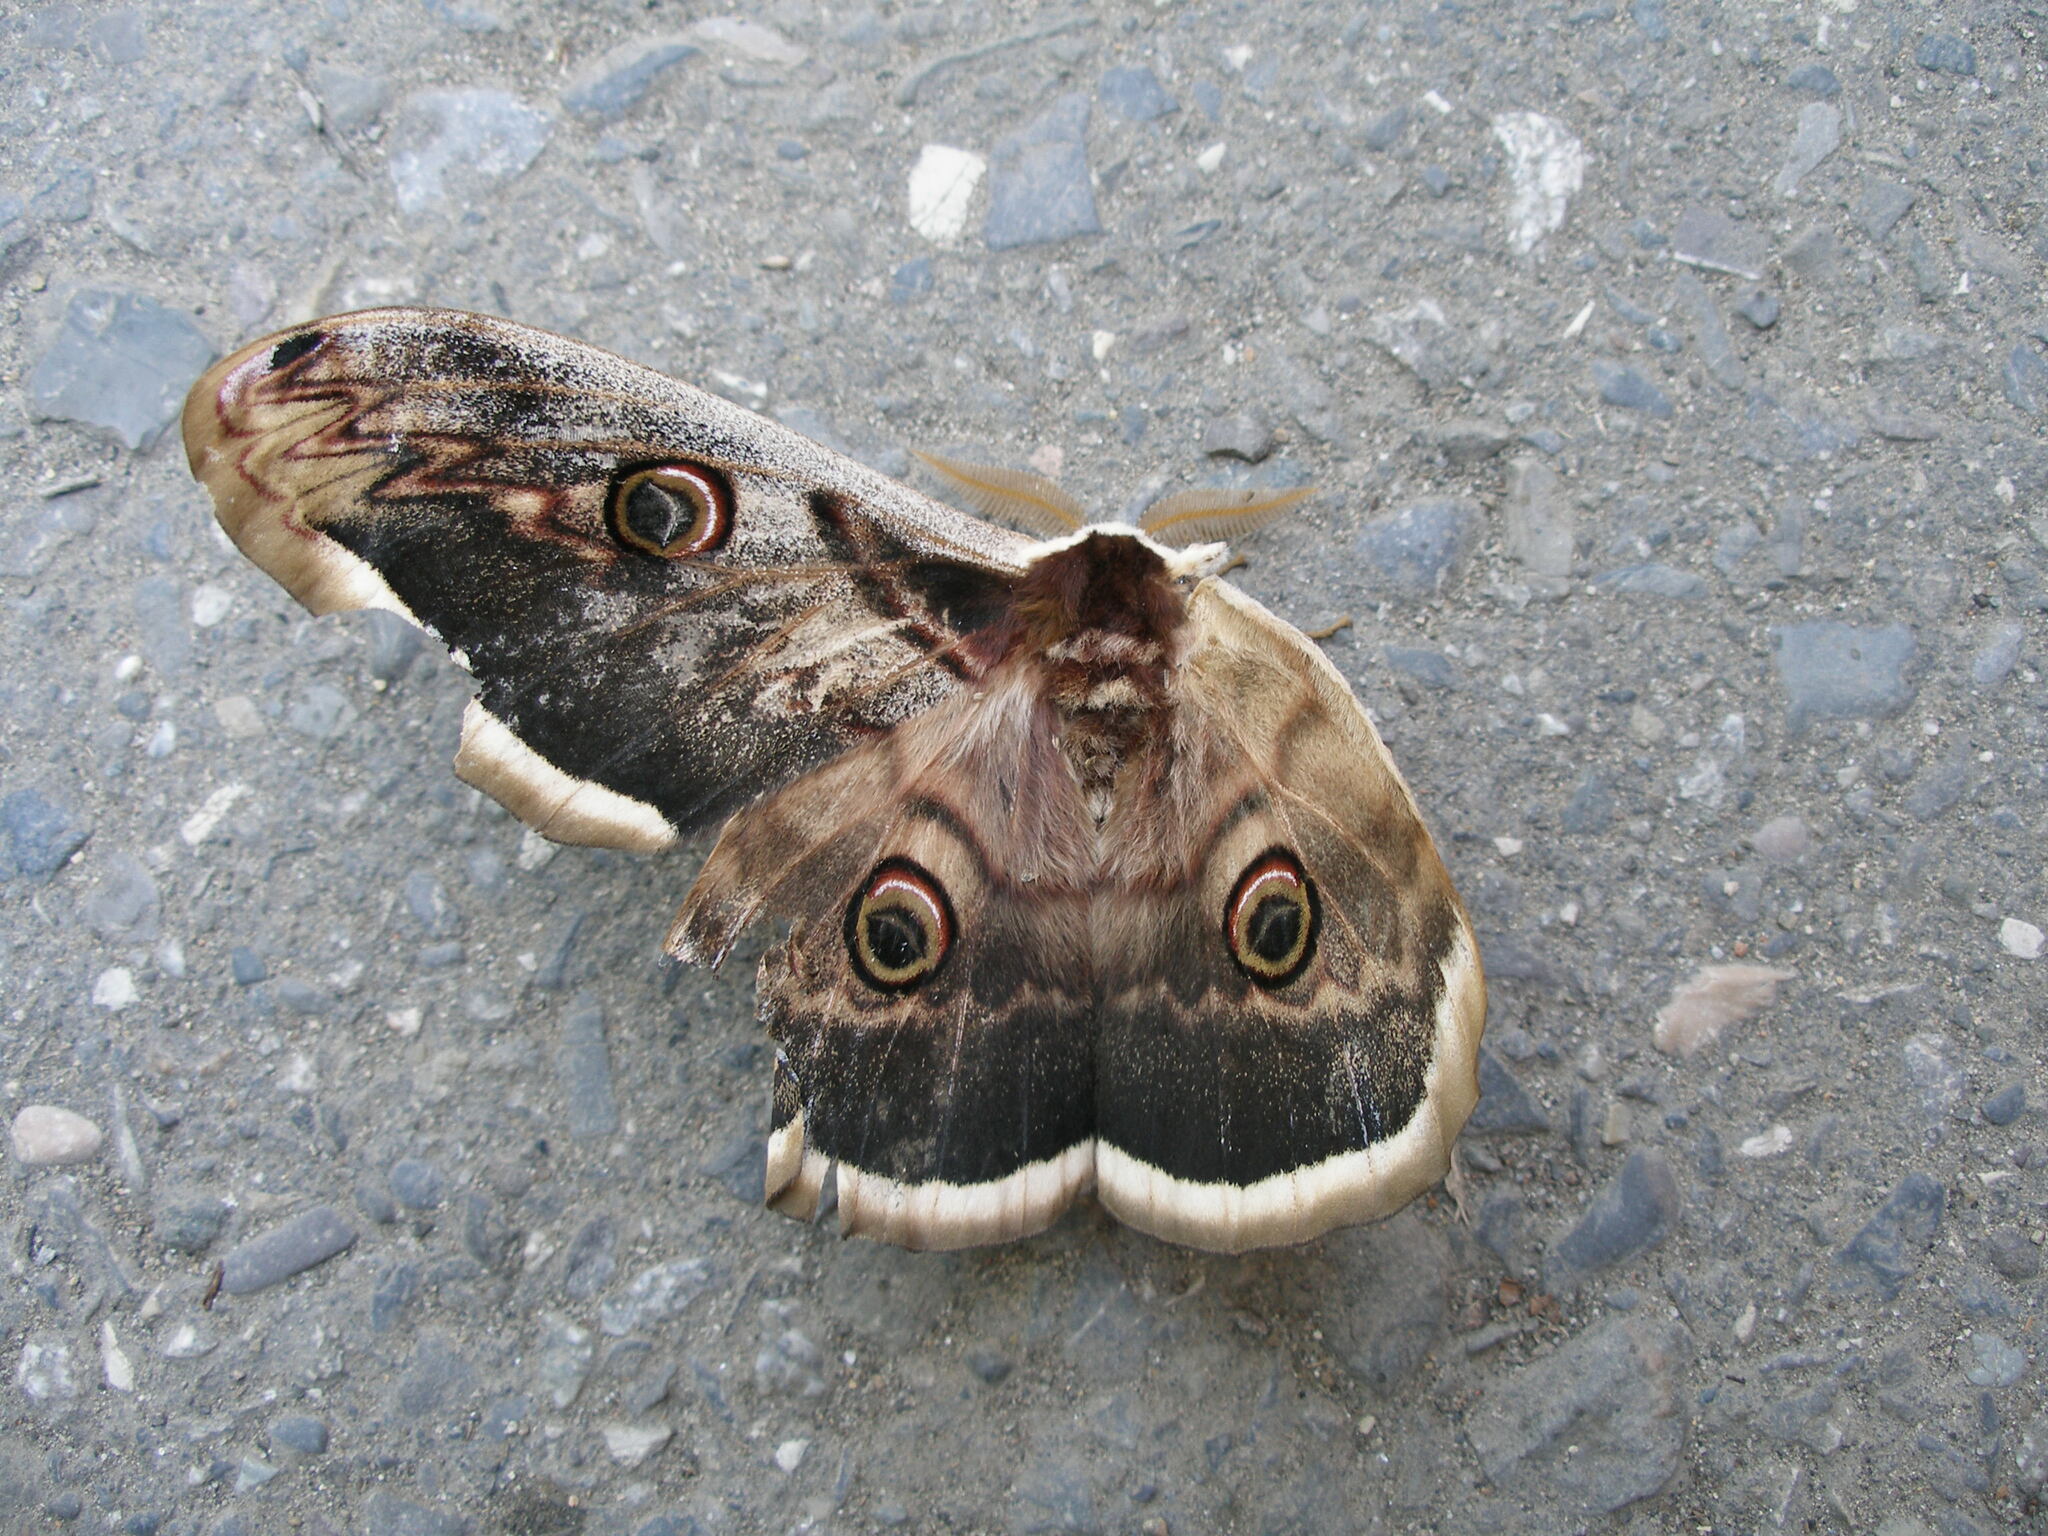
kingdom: Animalia
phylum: Arthropoda
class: Insecta
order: Lepidoptera
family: Saturniidae
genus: Saturnia
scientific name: Saturnia pyri
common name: Great peacock moth
